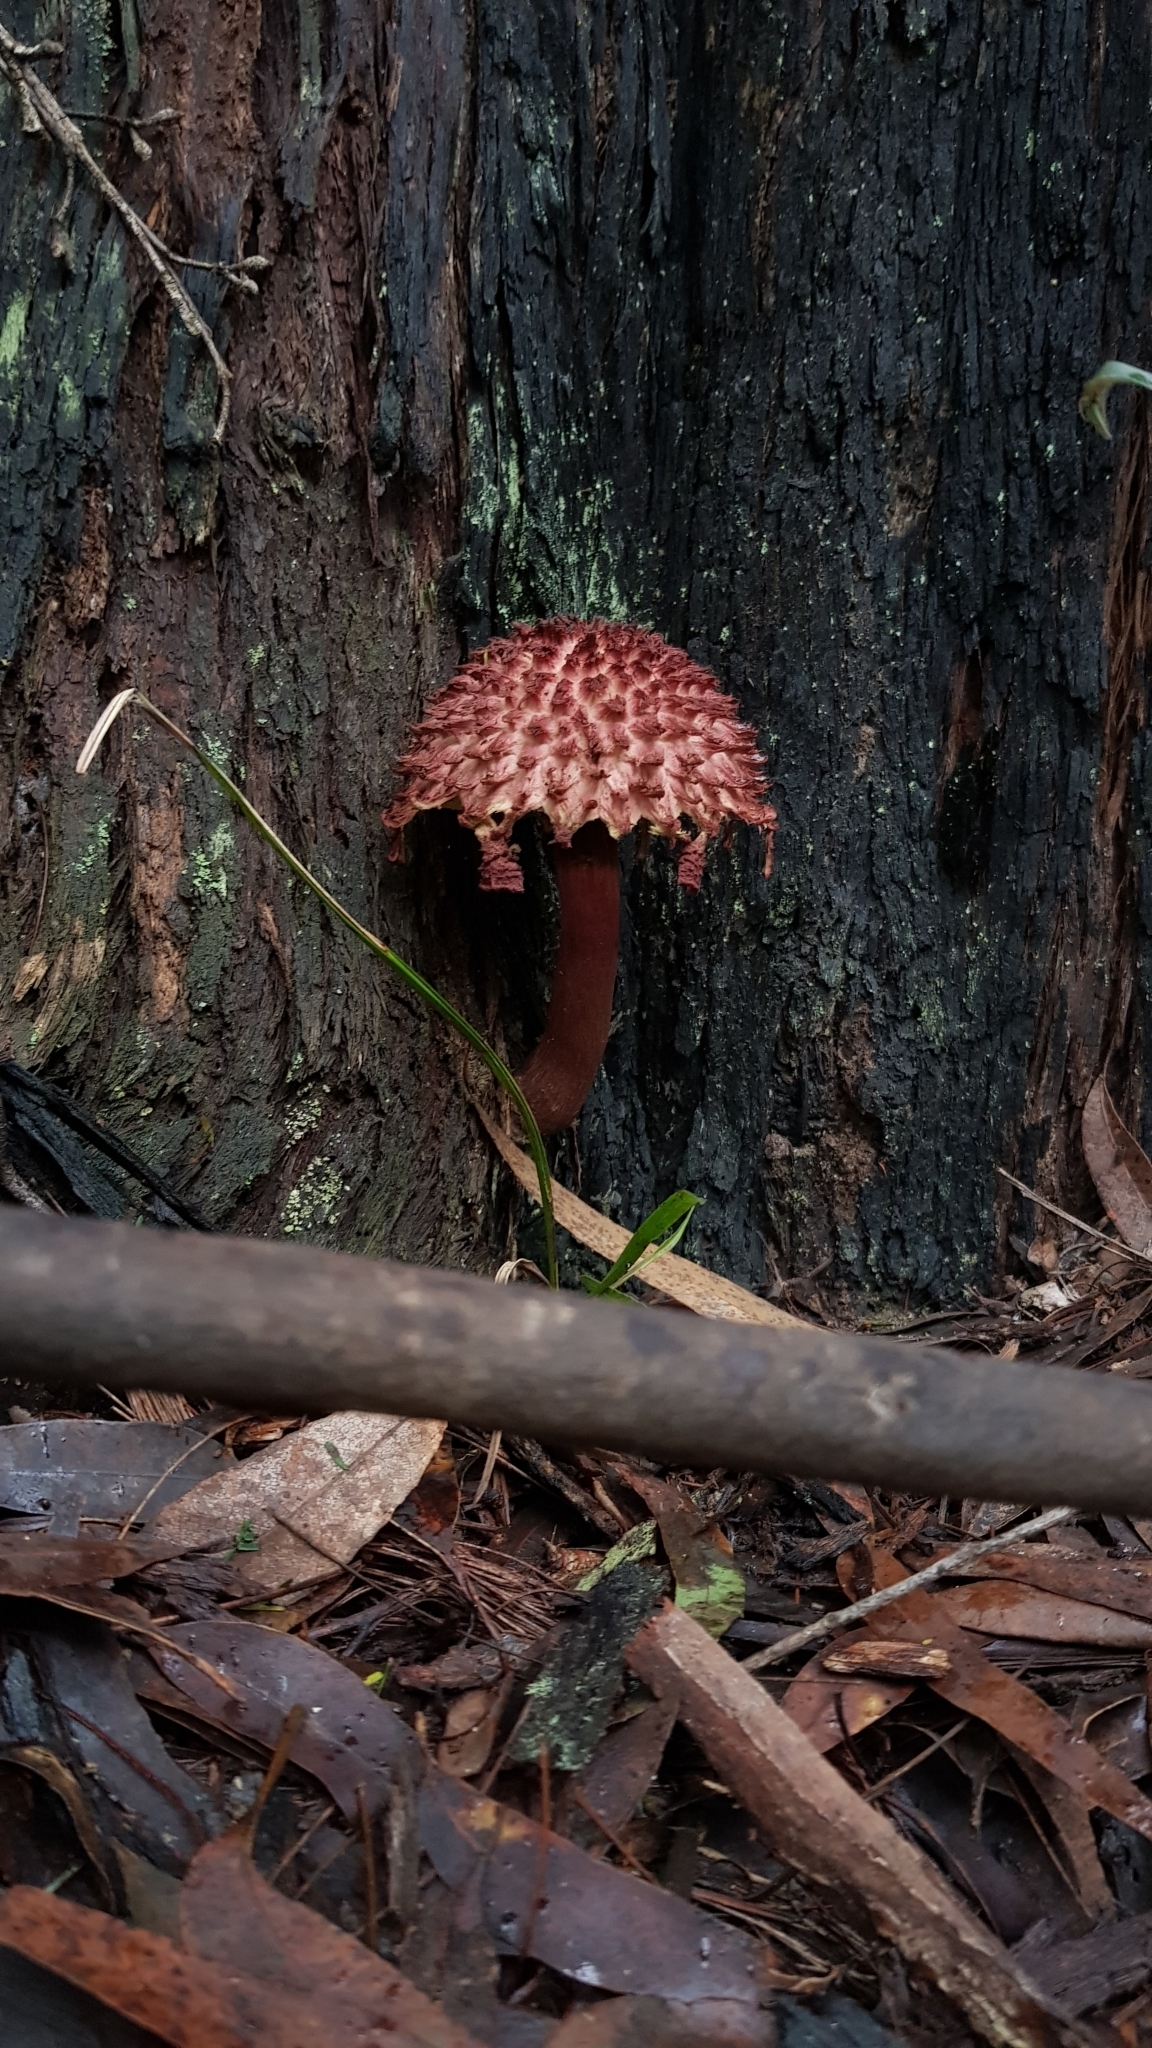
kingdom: Fungi
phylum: Basidiomycota
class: Agaricomycetes
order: Boletales
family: Boletaceae
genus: Boletellus
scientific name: Boletellus emodensis
